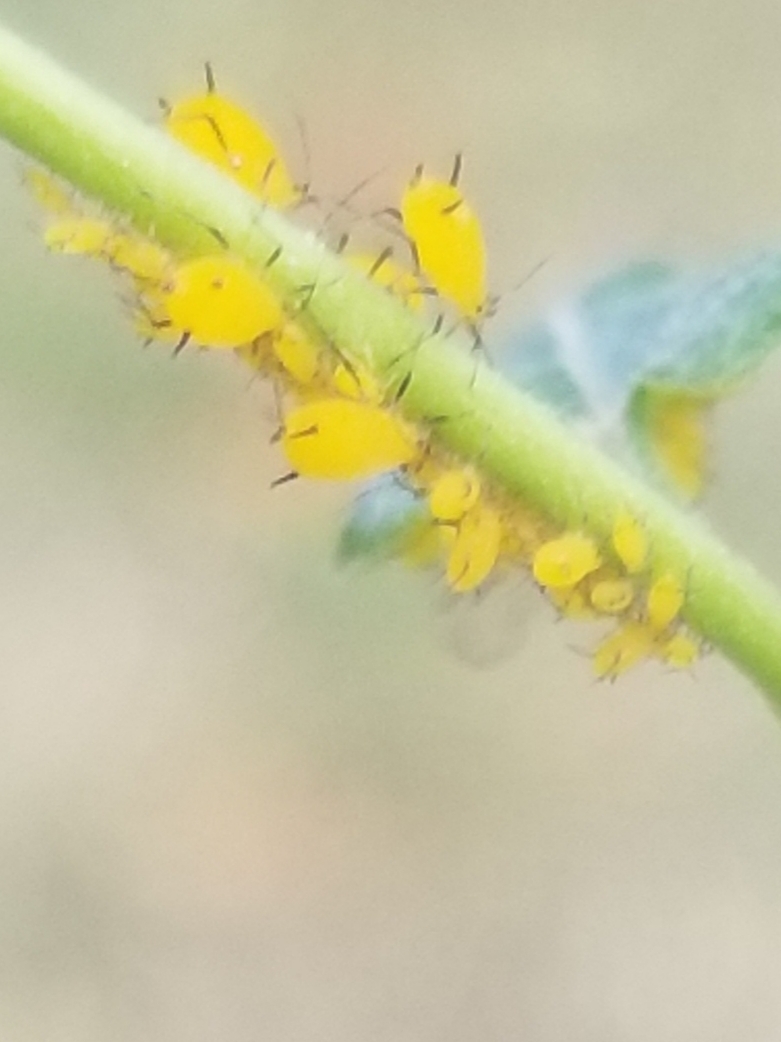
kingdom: Animalia
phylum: Arthropoda
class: Insecta
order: Hemiptera
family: Aphididae
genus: Aphis
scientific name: Aphis nerii
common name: Oleander aphid
